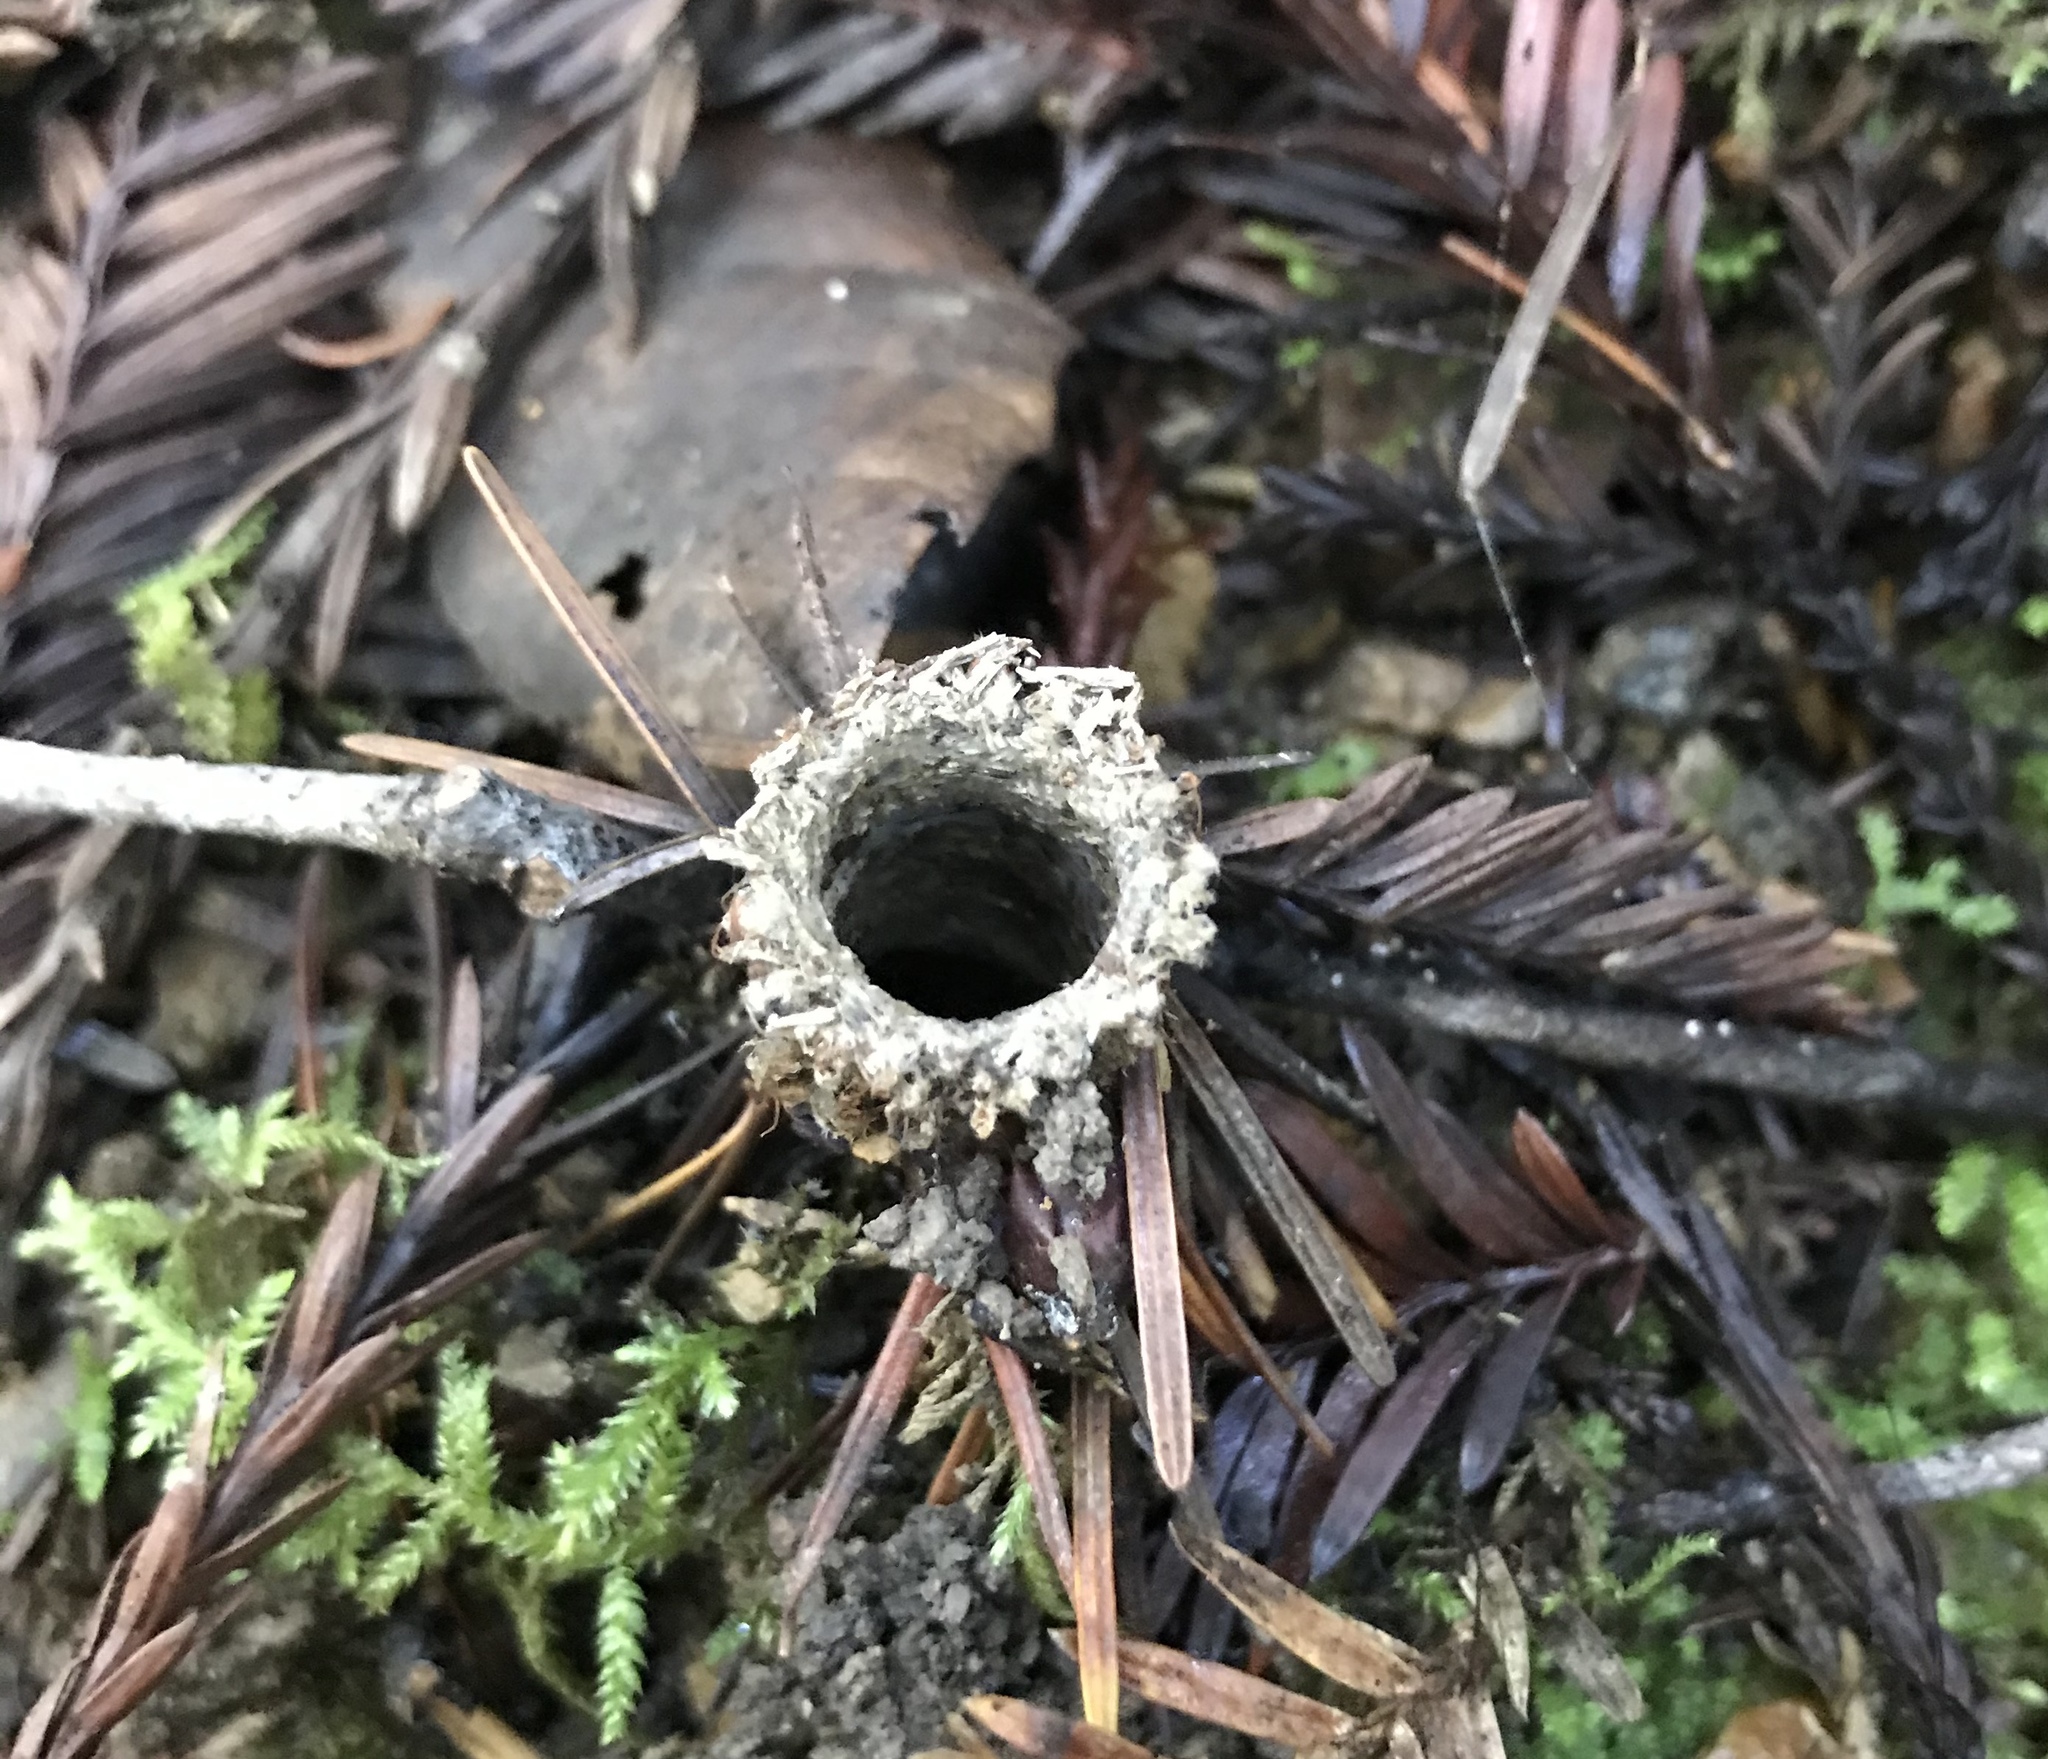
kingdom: Animalia
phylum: Arthropoda
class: Arachnida
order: Araneae
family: Antrodiaetidae
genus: Atypoides
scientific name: Atypoides riversi
